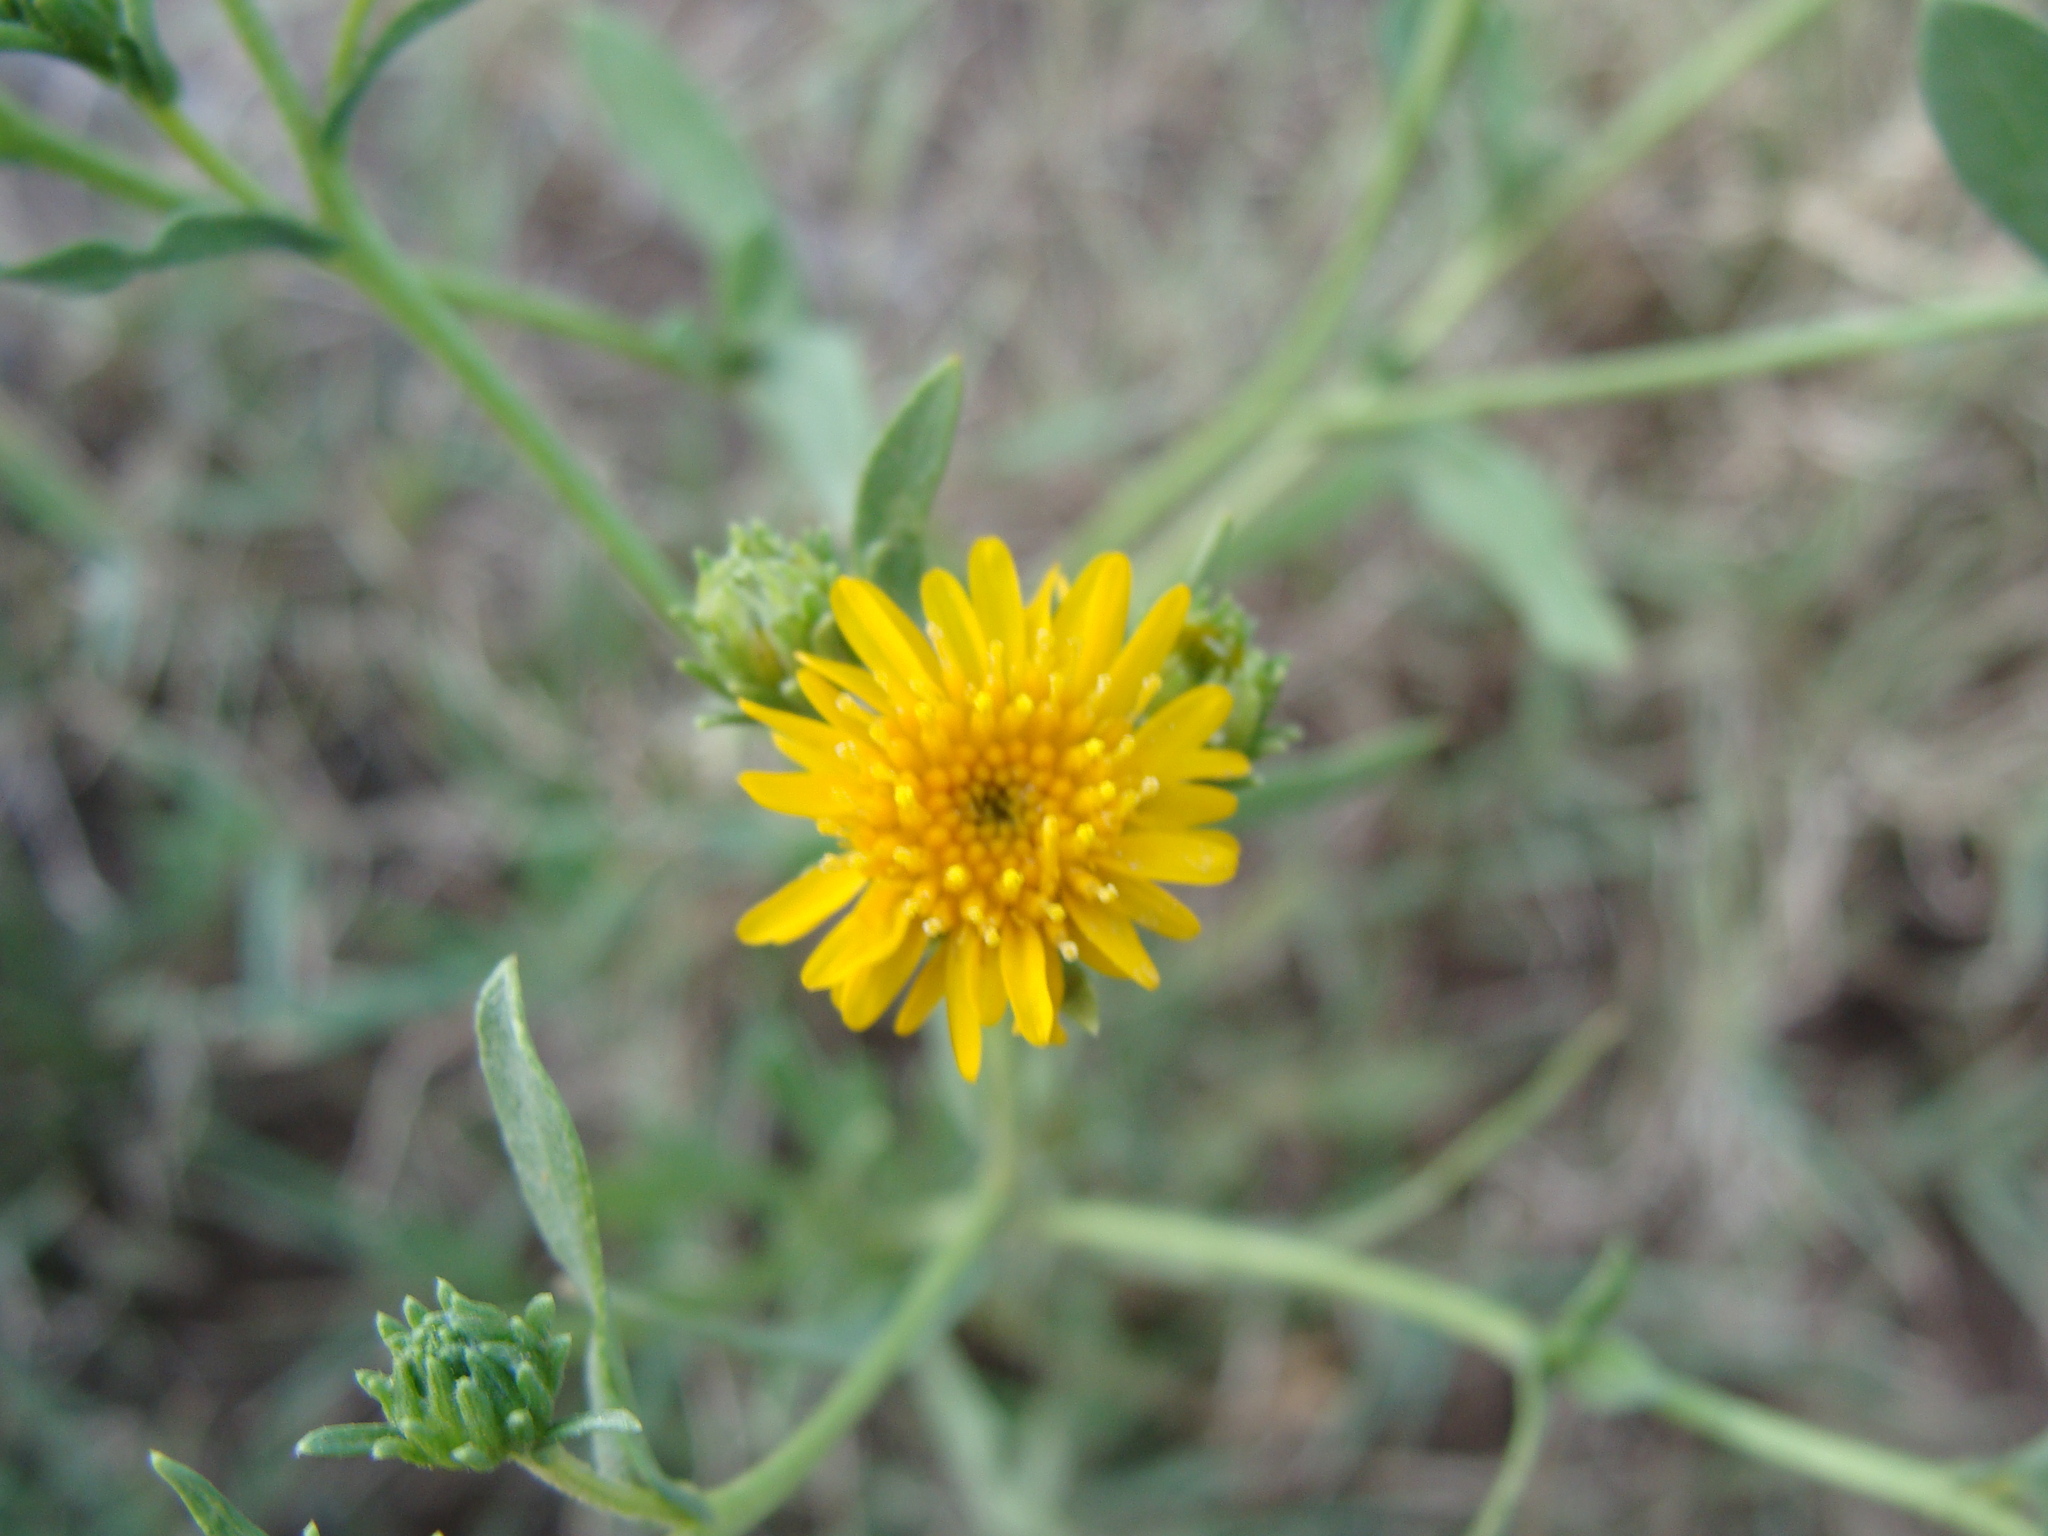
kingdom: Plantae
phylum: Tracheophyta
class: Magnoliopsida
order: Asterales
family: Asteraceae
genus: Xanthocephalum
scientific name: Xanthocephalum gymnospermoides
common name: San pedro matchweed
